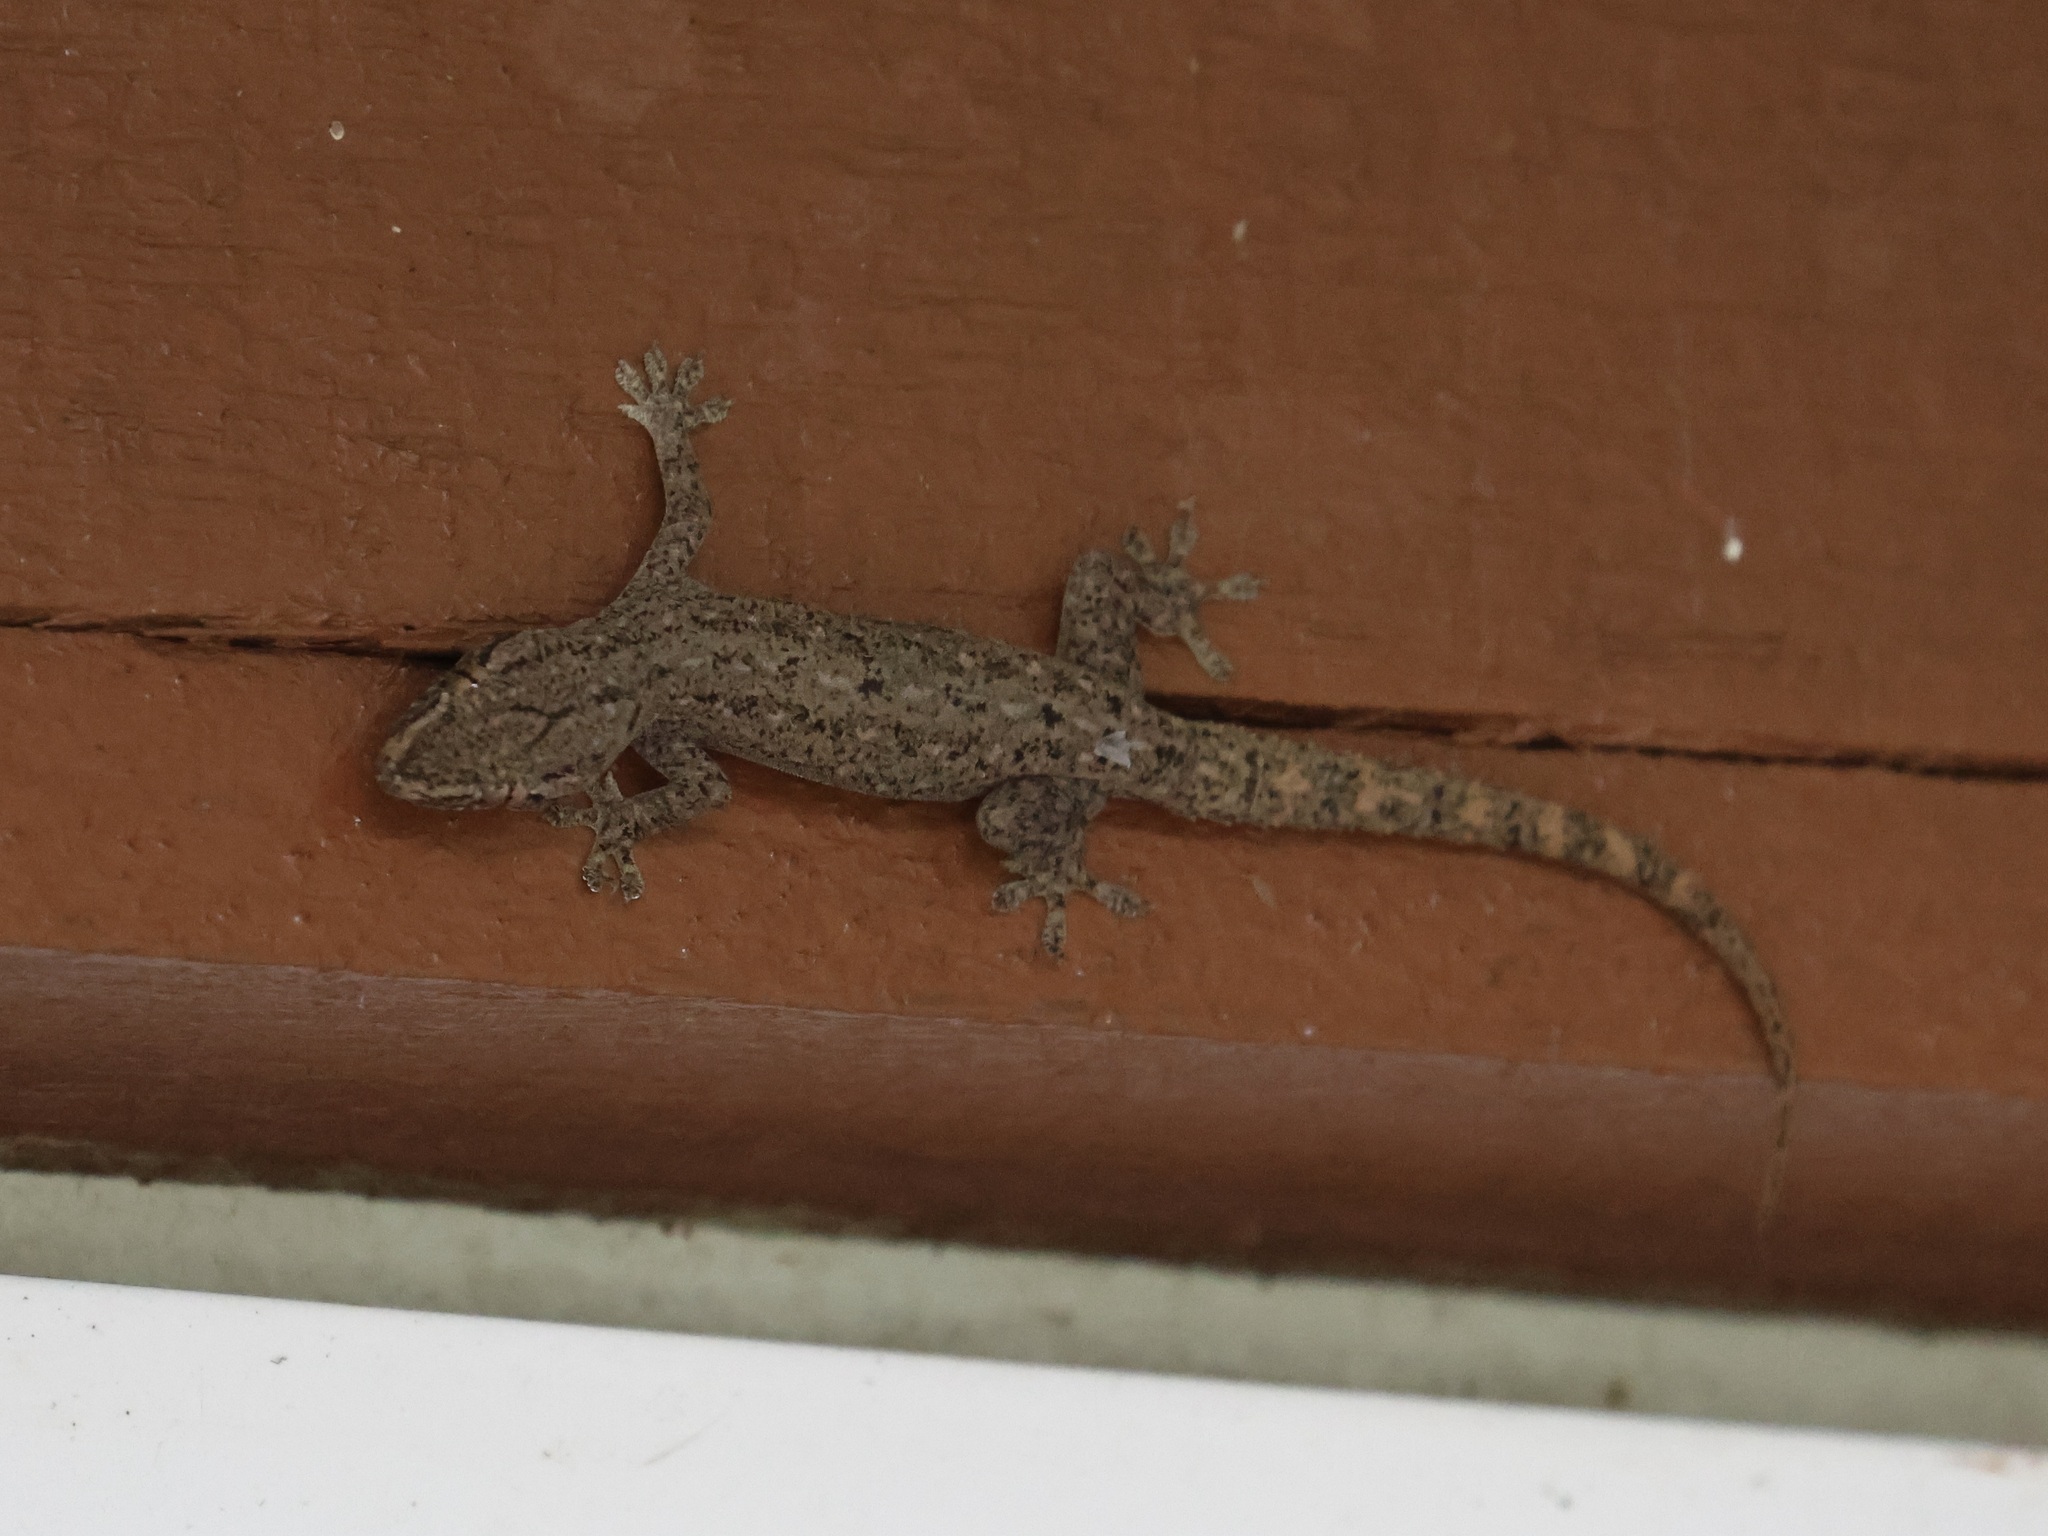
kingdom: Animalia
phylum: Chordata
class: Squamata
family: Gekkonidae
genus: Hemidactylus
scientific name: Hemidactylus frenatus
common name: Common house gecko
